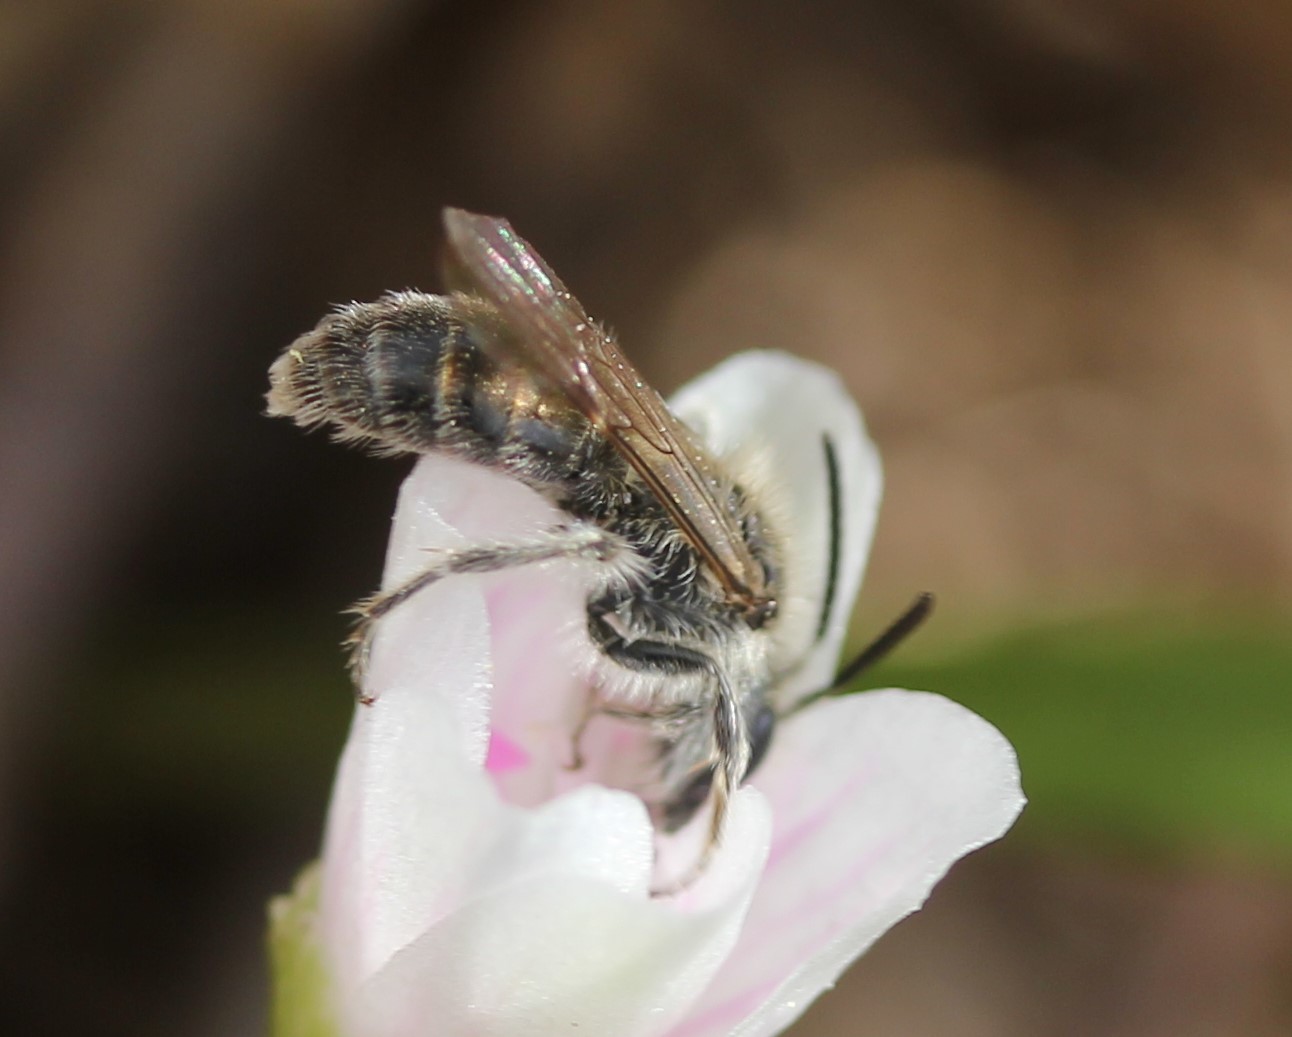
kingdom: Animalia
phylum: Arthropoda
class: Insecta
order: Hymenoptera
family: Andrenidae
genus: Andrena
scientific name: Andrena erigeniae
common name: Spring beauty miner
